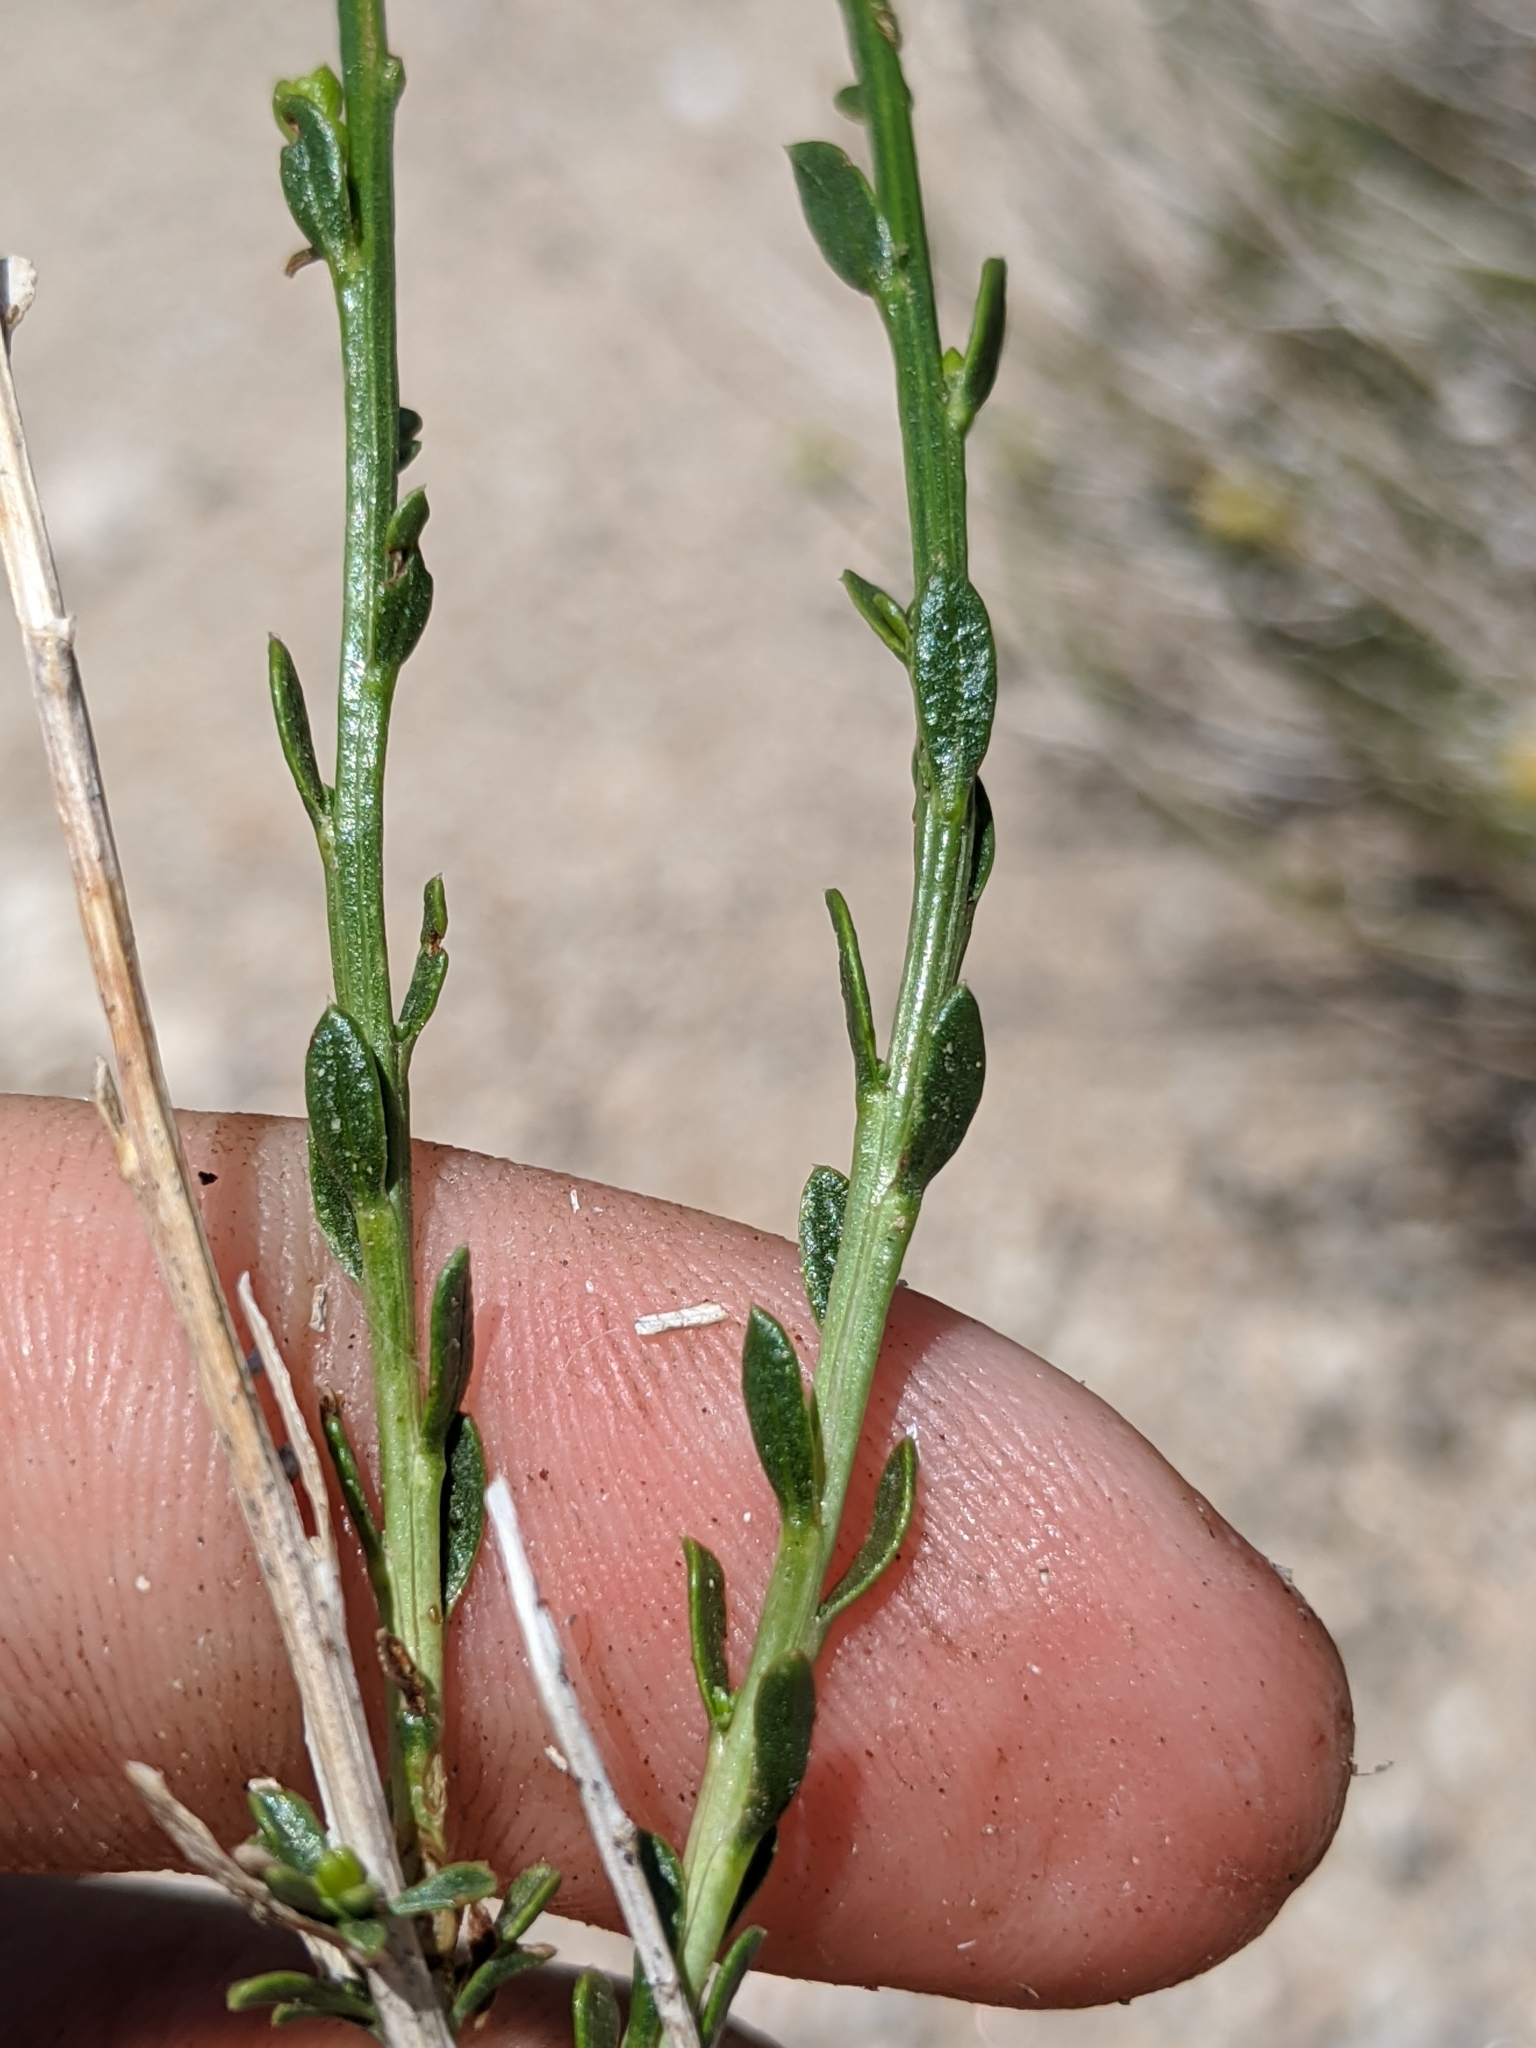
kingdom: Plantae
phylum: Tracheophyta
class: Magnoliopsida
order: Asterales
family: Asteraceae
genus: Acamptopappus
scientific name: Acamptopappus sphaerocephalus
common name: Goldenhead
